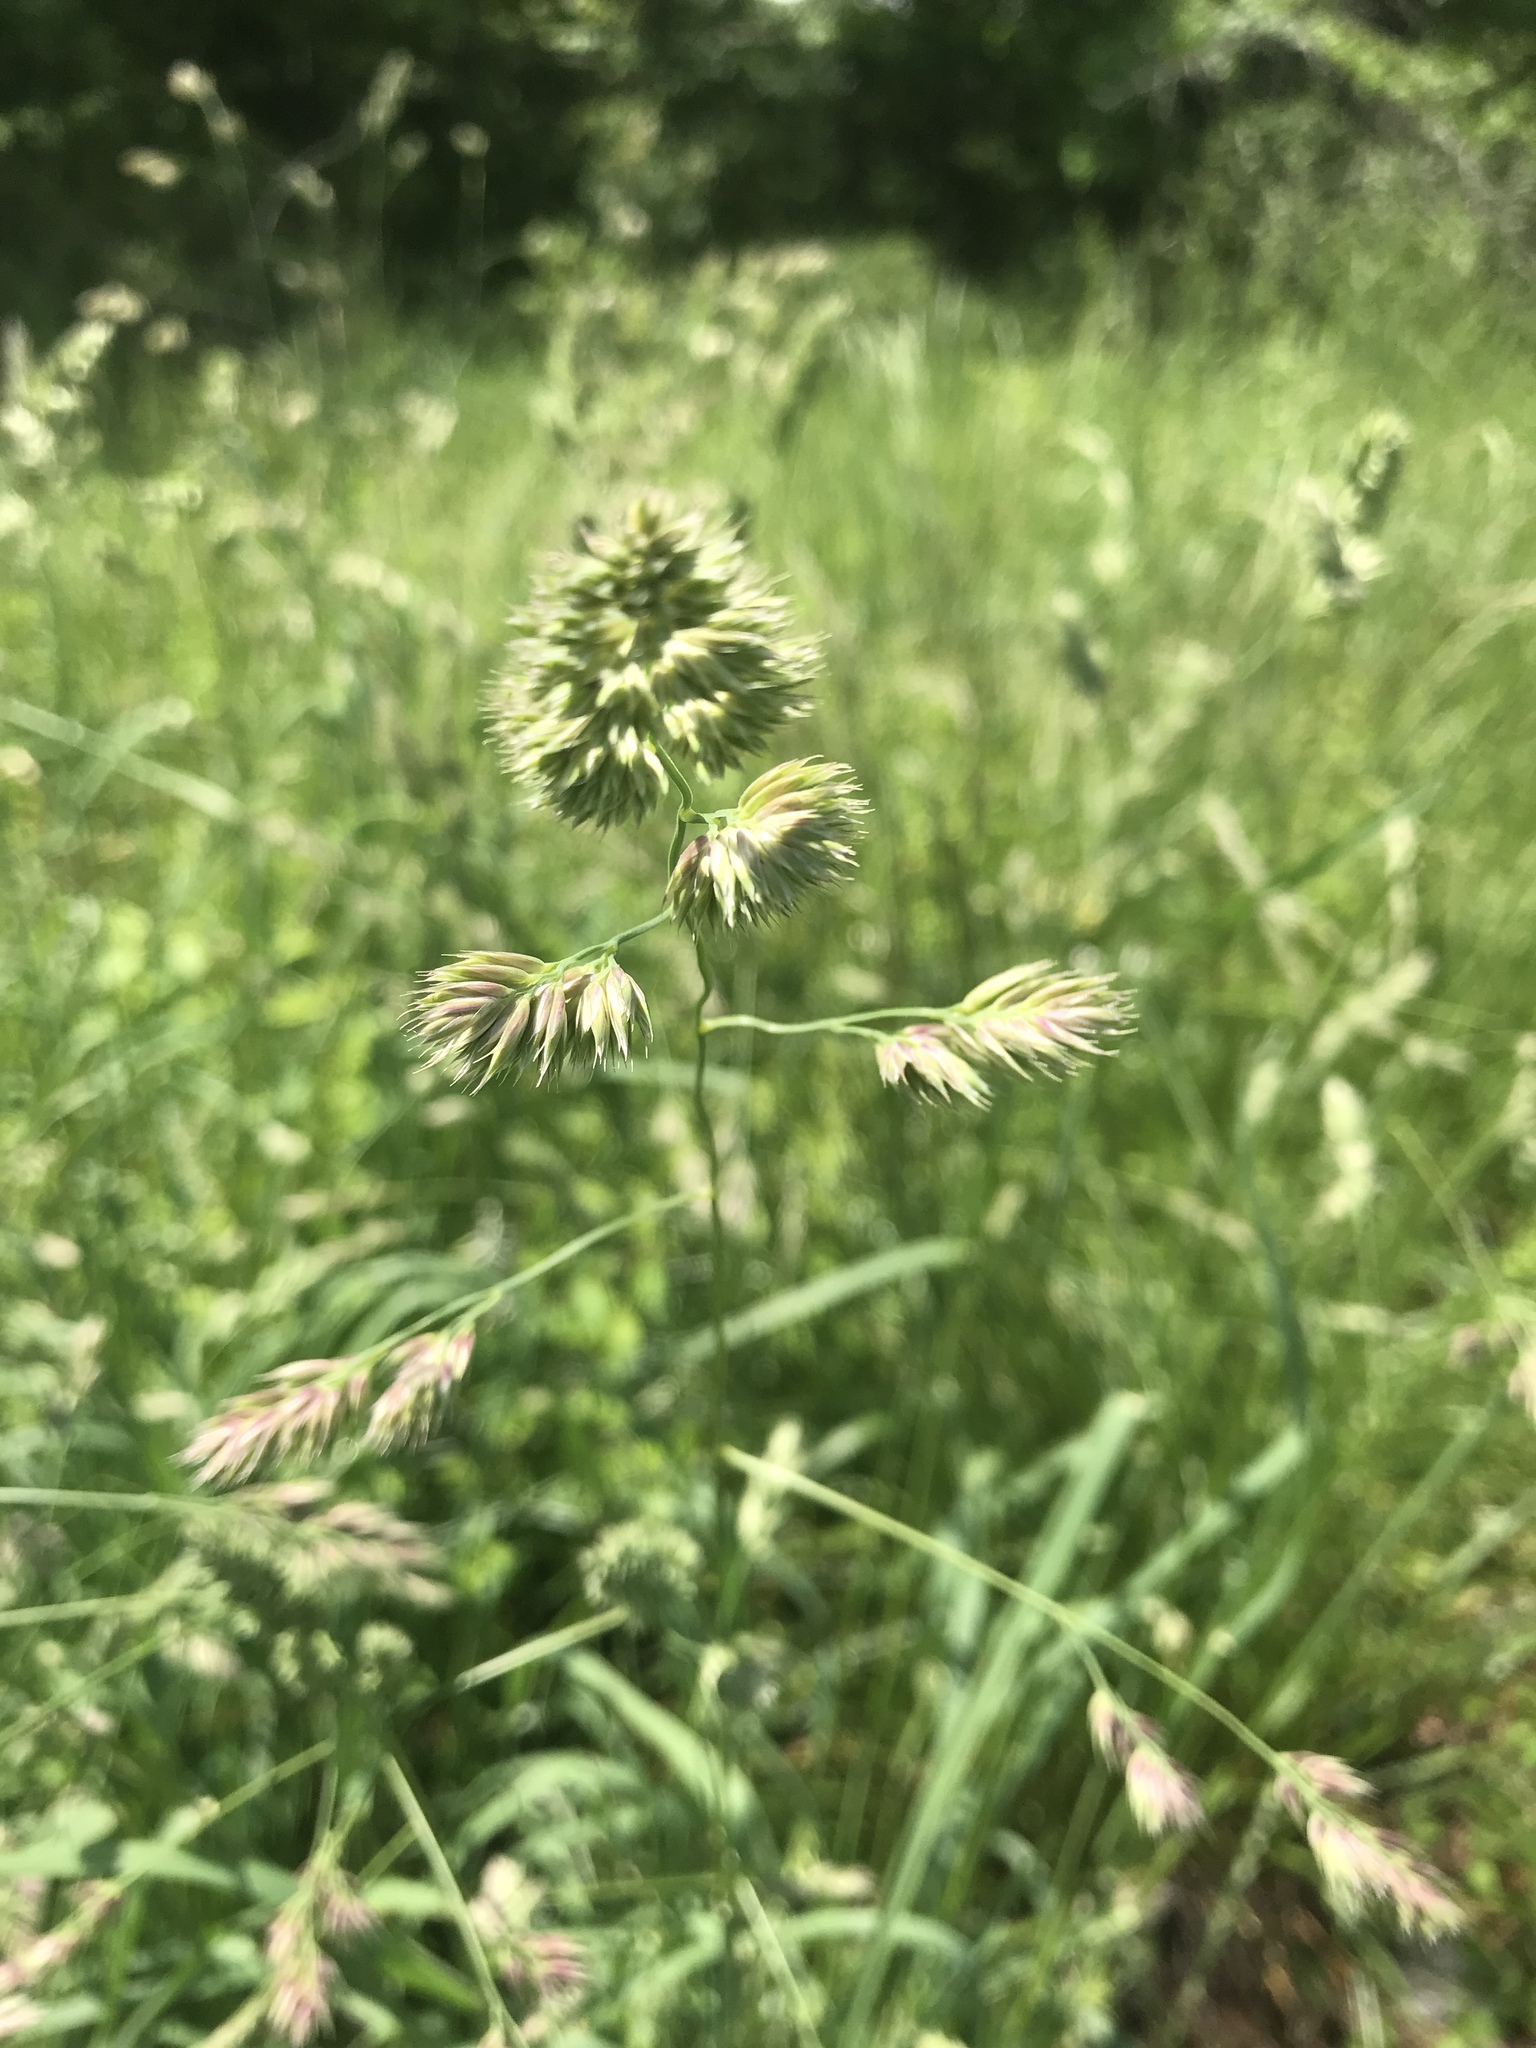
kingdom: Plantae
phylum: Tracheophyta
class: Liliopsida
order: Poales
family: Poaceae
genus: Dactylis
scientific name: Dactylis glomerata
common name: Orchardgrass
